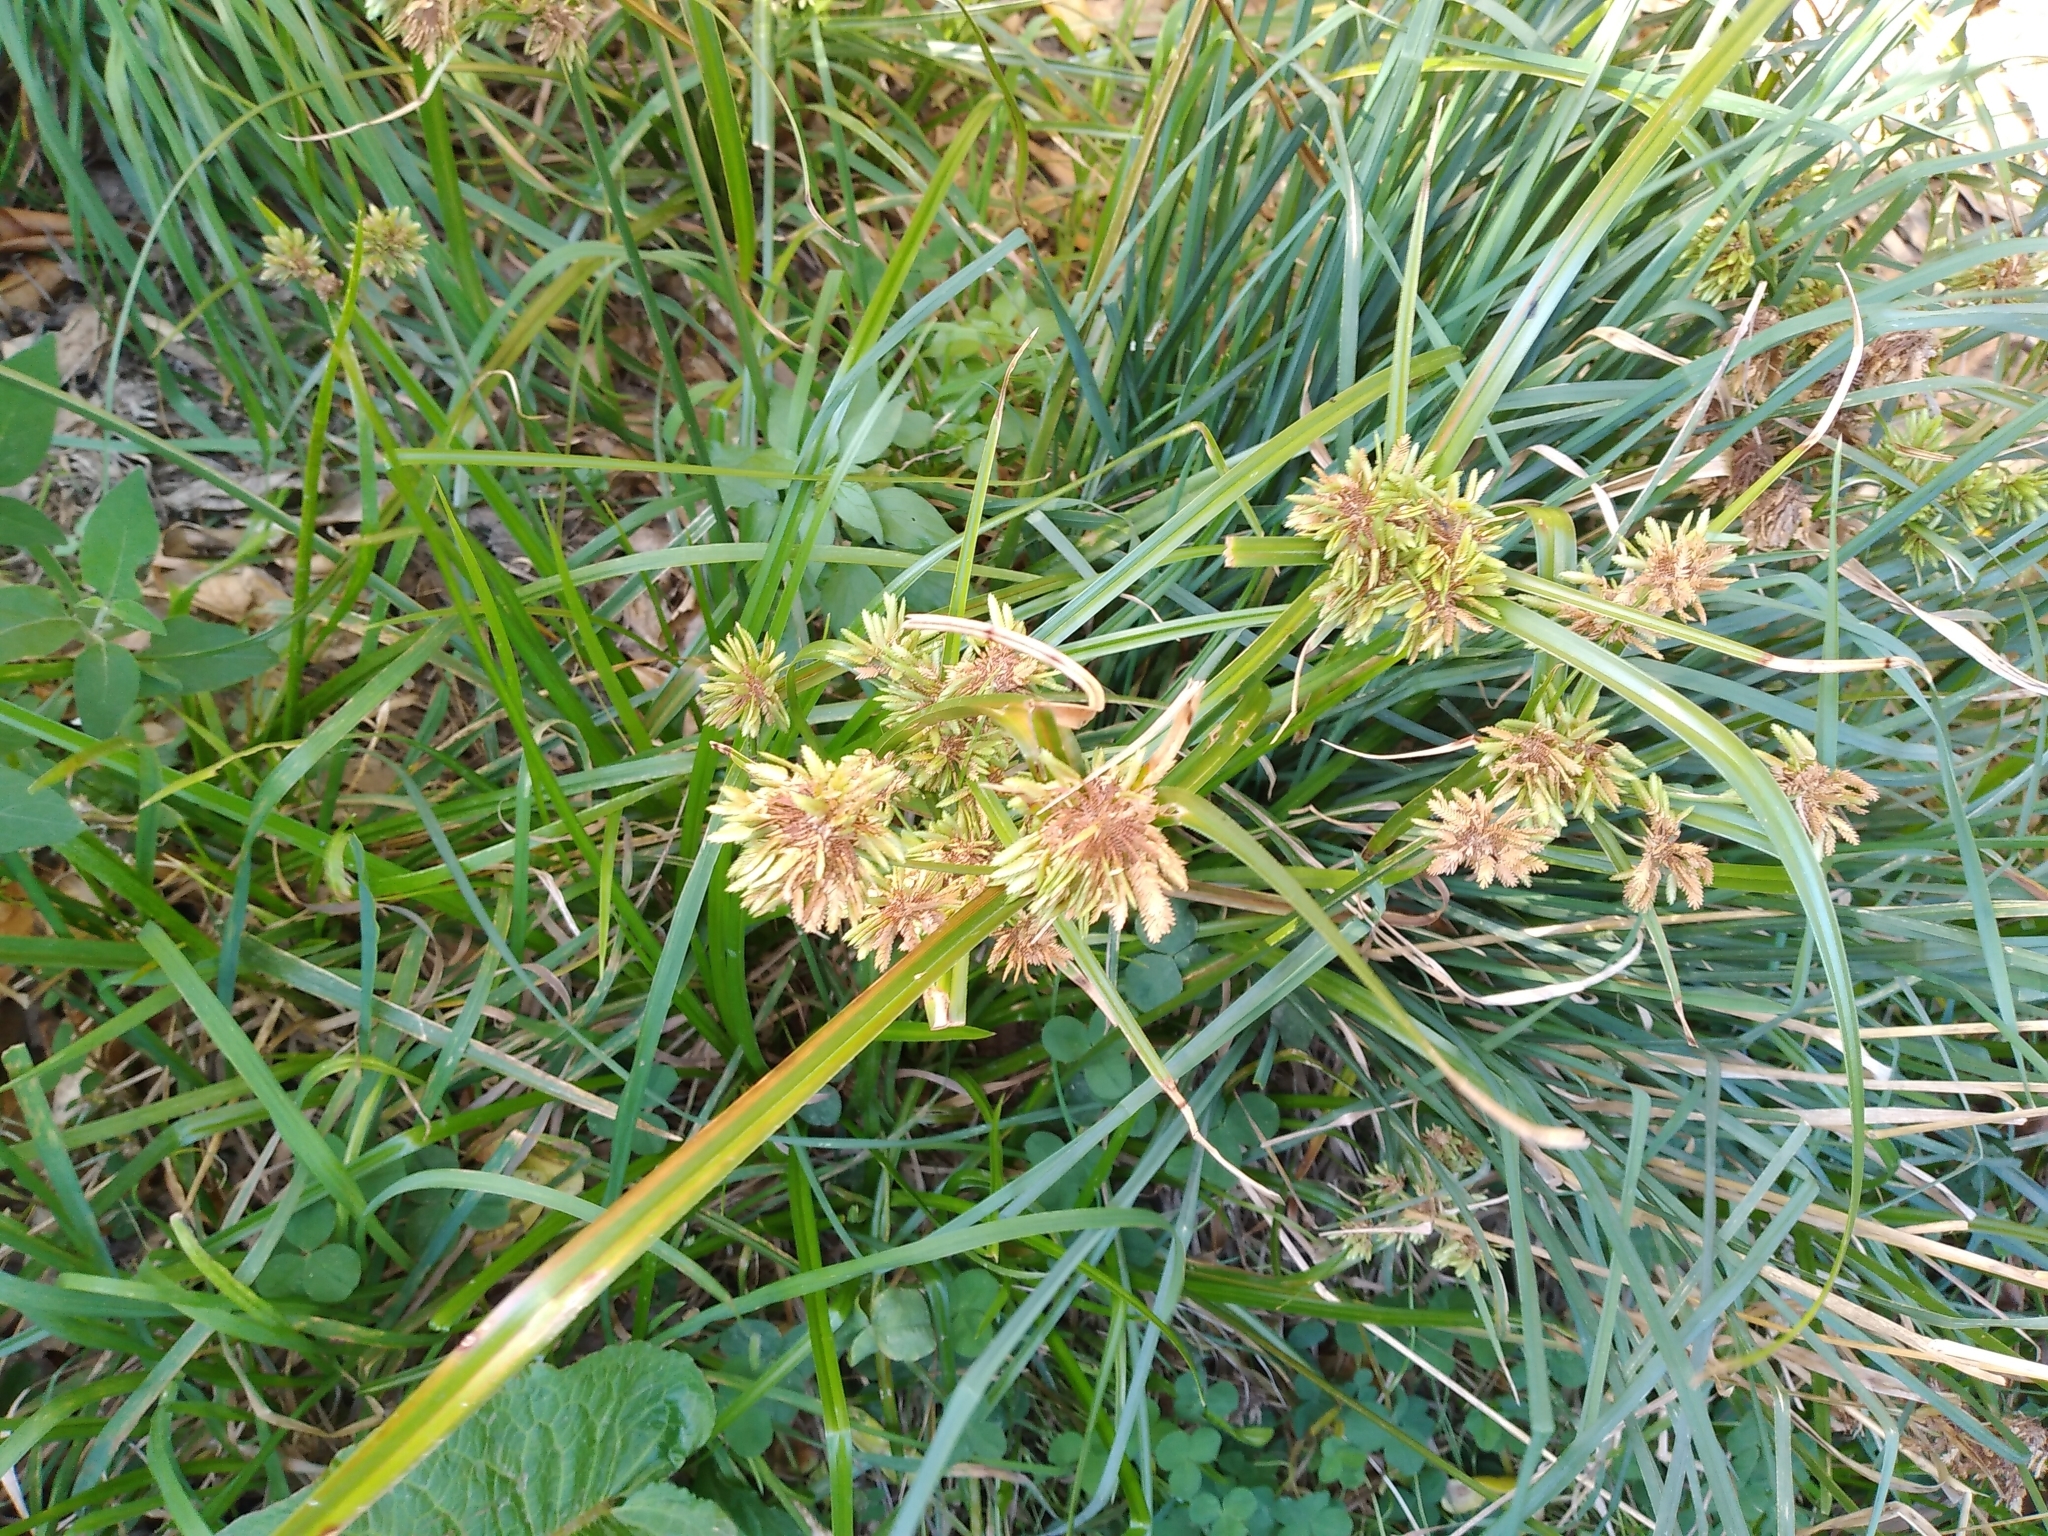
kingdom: Plantae
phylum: Tracheophyta
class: Liliopsida
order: Poales
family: Cyperaceae
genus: Cyperus
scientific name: Cyperus eragrostis
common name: Tall flatsedge
